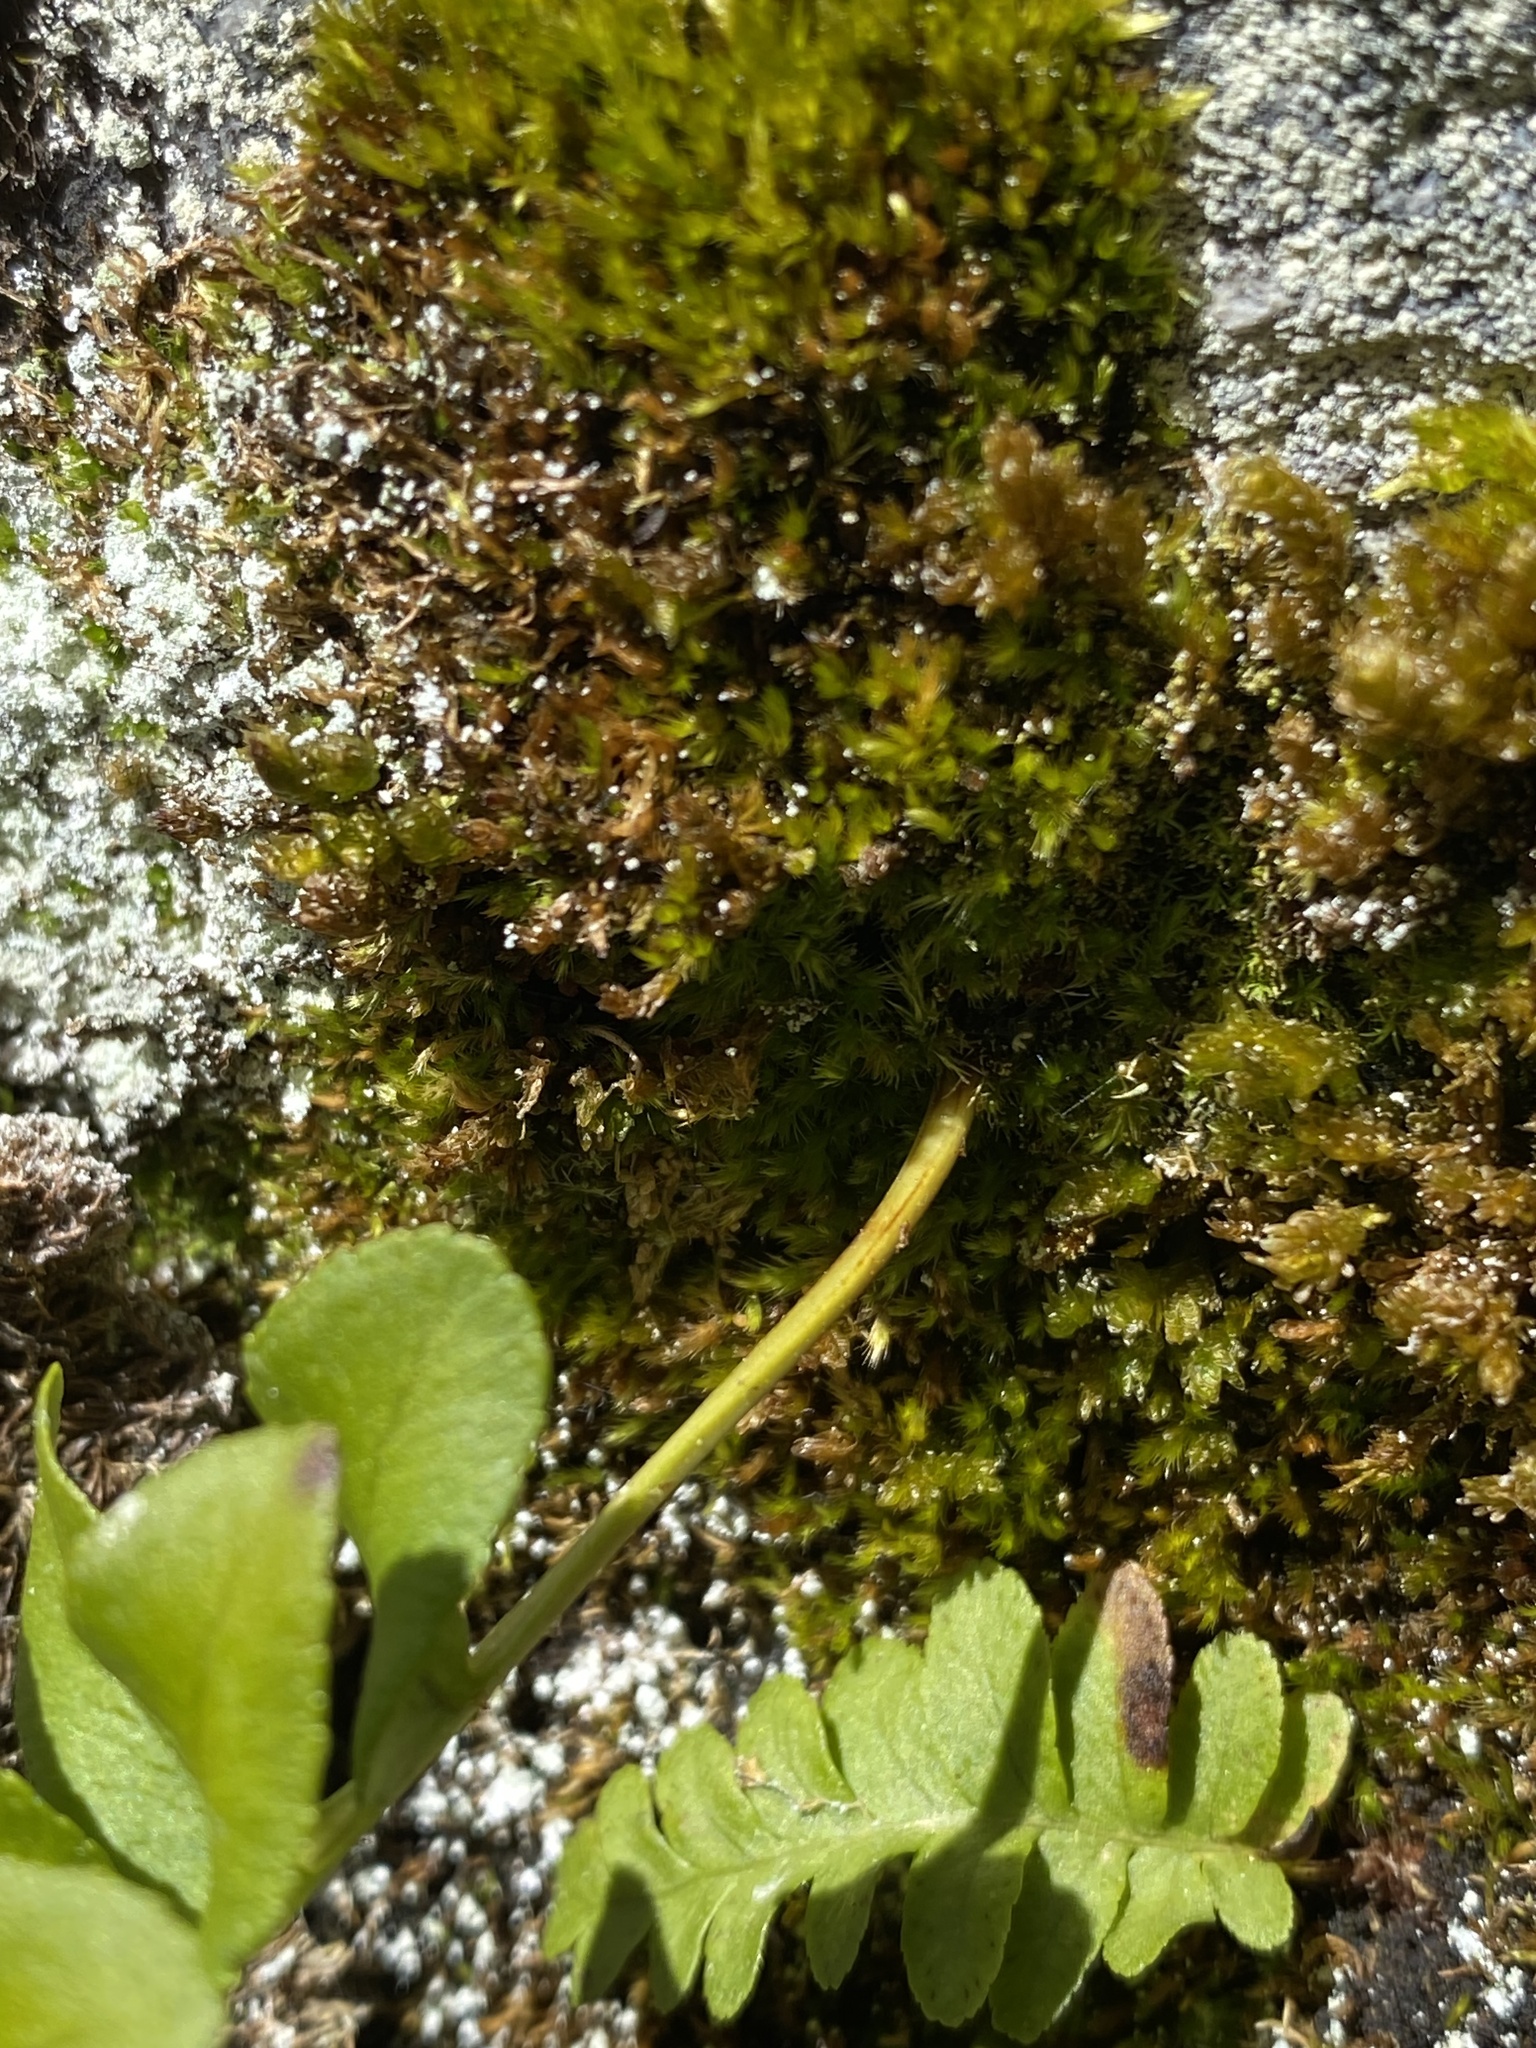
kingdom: Plantae
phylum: Tracheophyta
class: Polypodiopsida
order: Polypodiales
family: Polypodiaceae
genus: Polypodium
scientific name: Polypodium hesperium
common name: Western polypody
